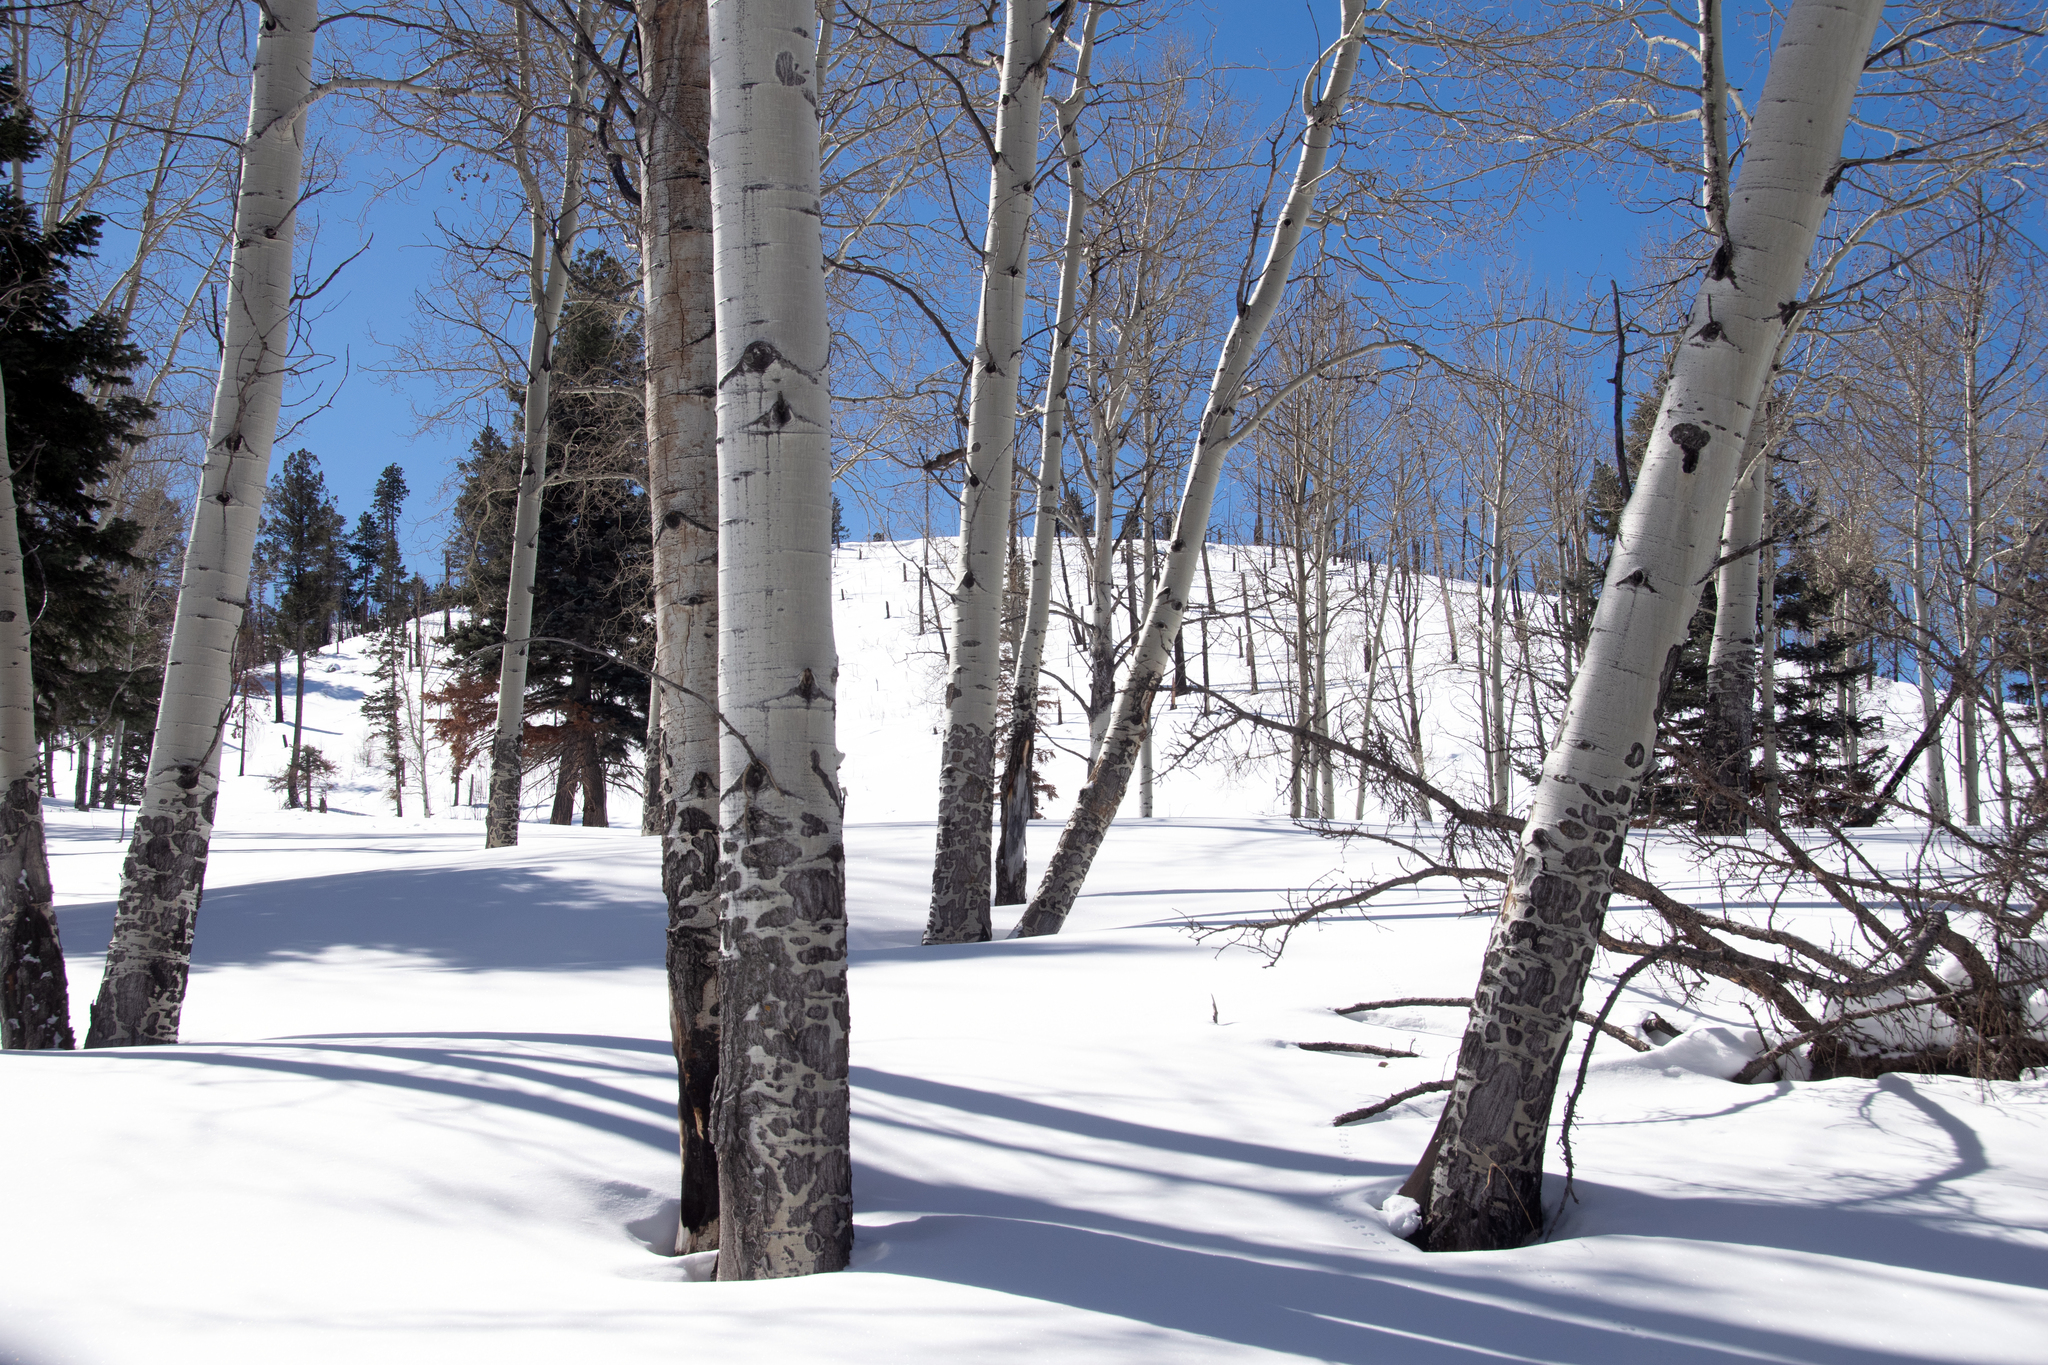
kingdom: Plantae
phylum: Tracheophyta
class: Magnoliopsida
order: Malpighiales
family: Salicaceae
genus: Populus
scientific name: Populus tremuloides
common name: Quaking aspen
